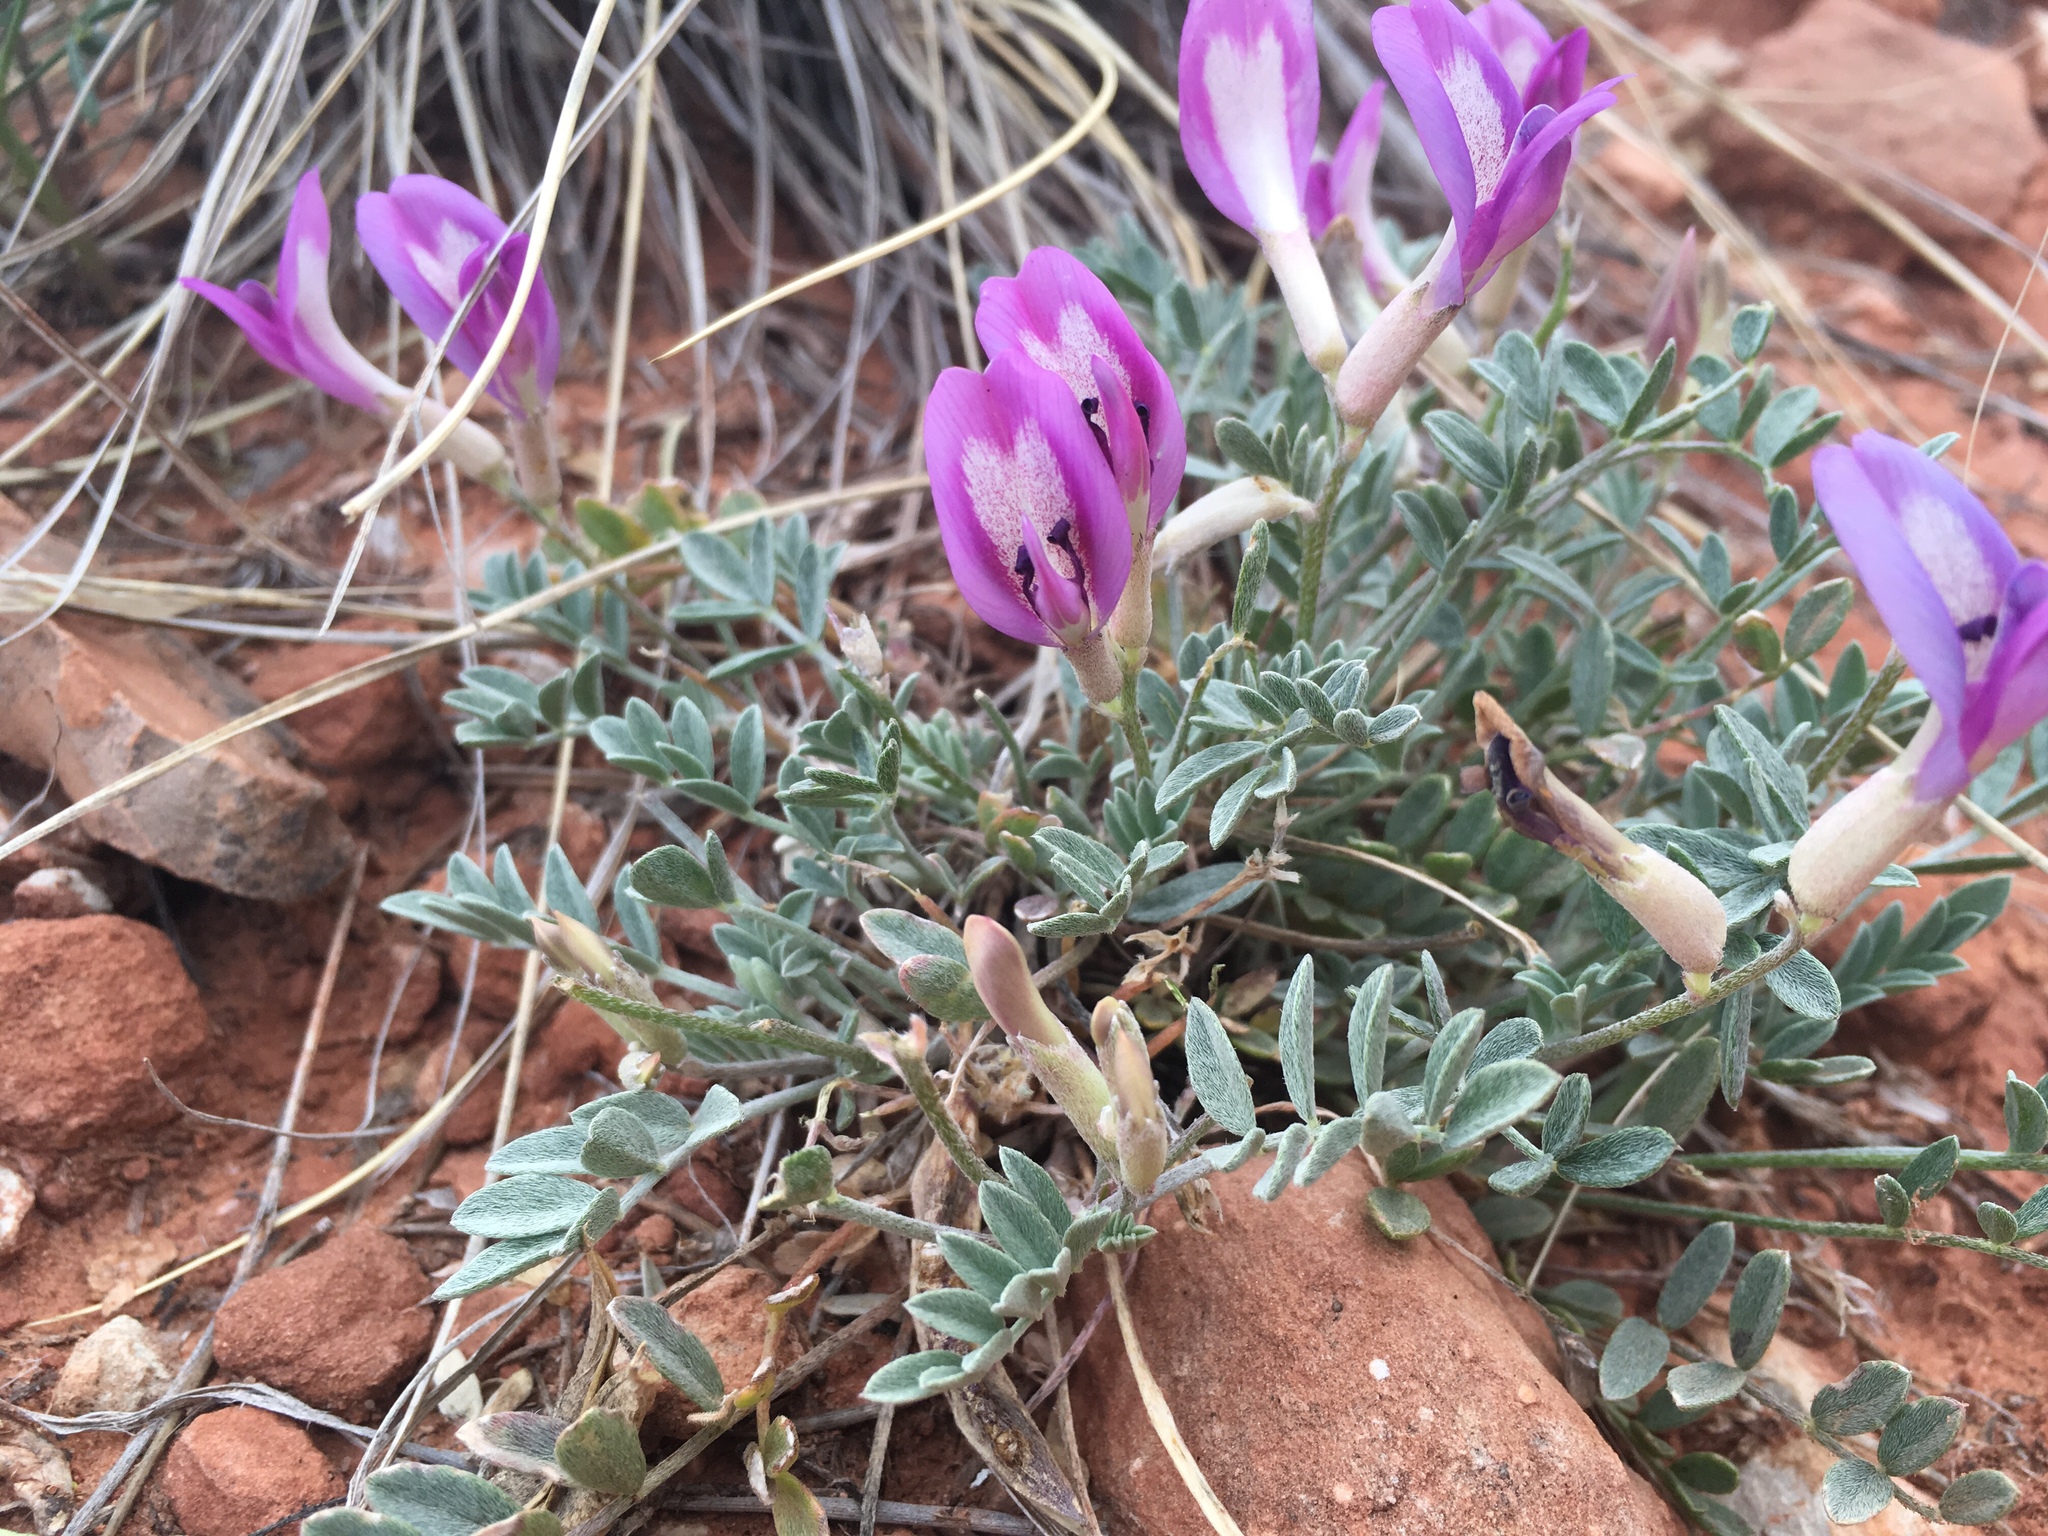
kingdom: Plantae
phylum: Tracheophyta
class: Magnoliopsida
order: Fabales
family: Fabaceae
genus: Astragalus
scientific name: Astragalus amphioxys
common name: Crescent milk-vetch
